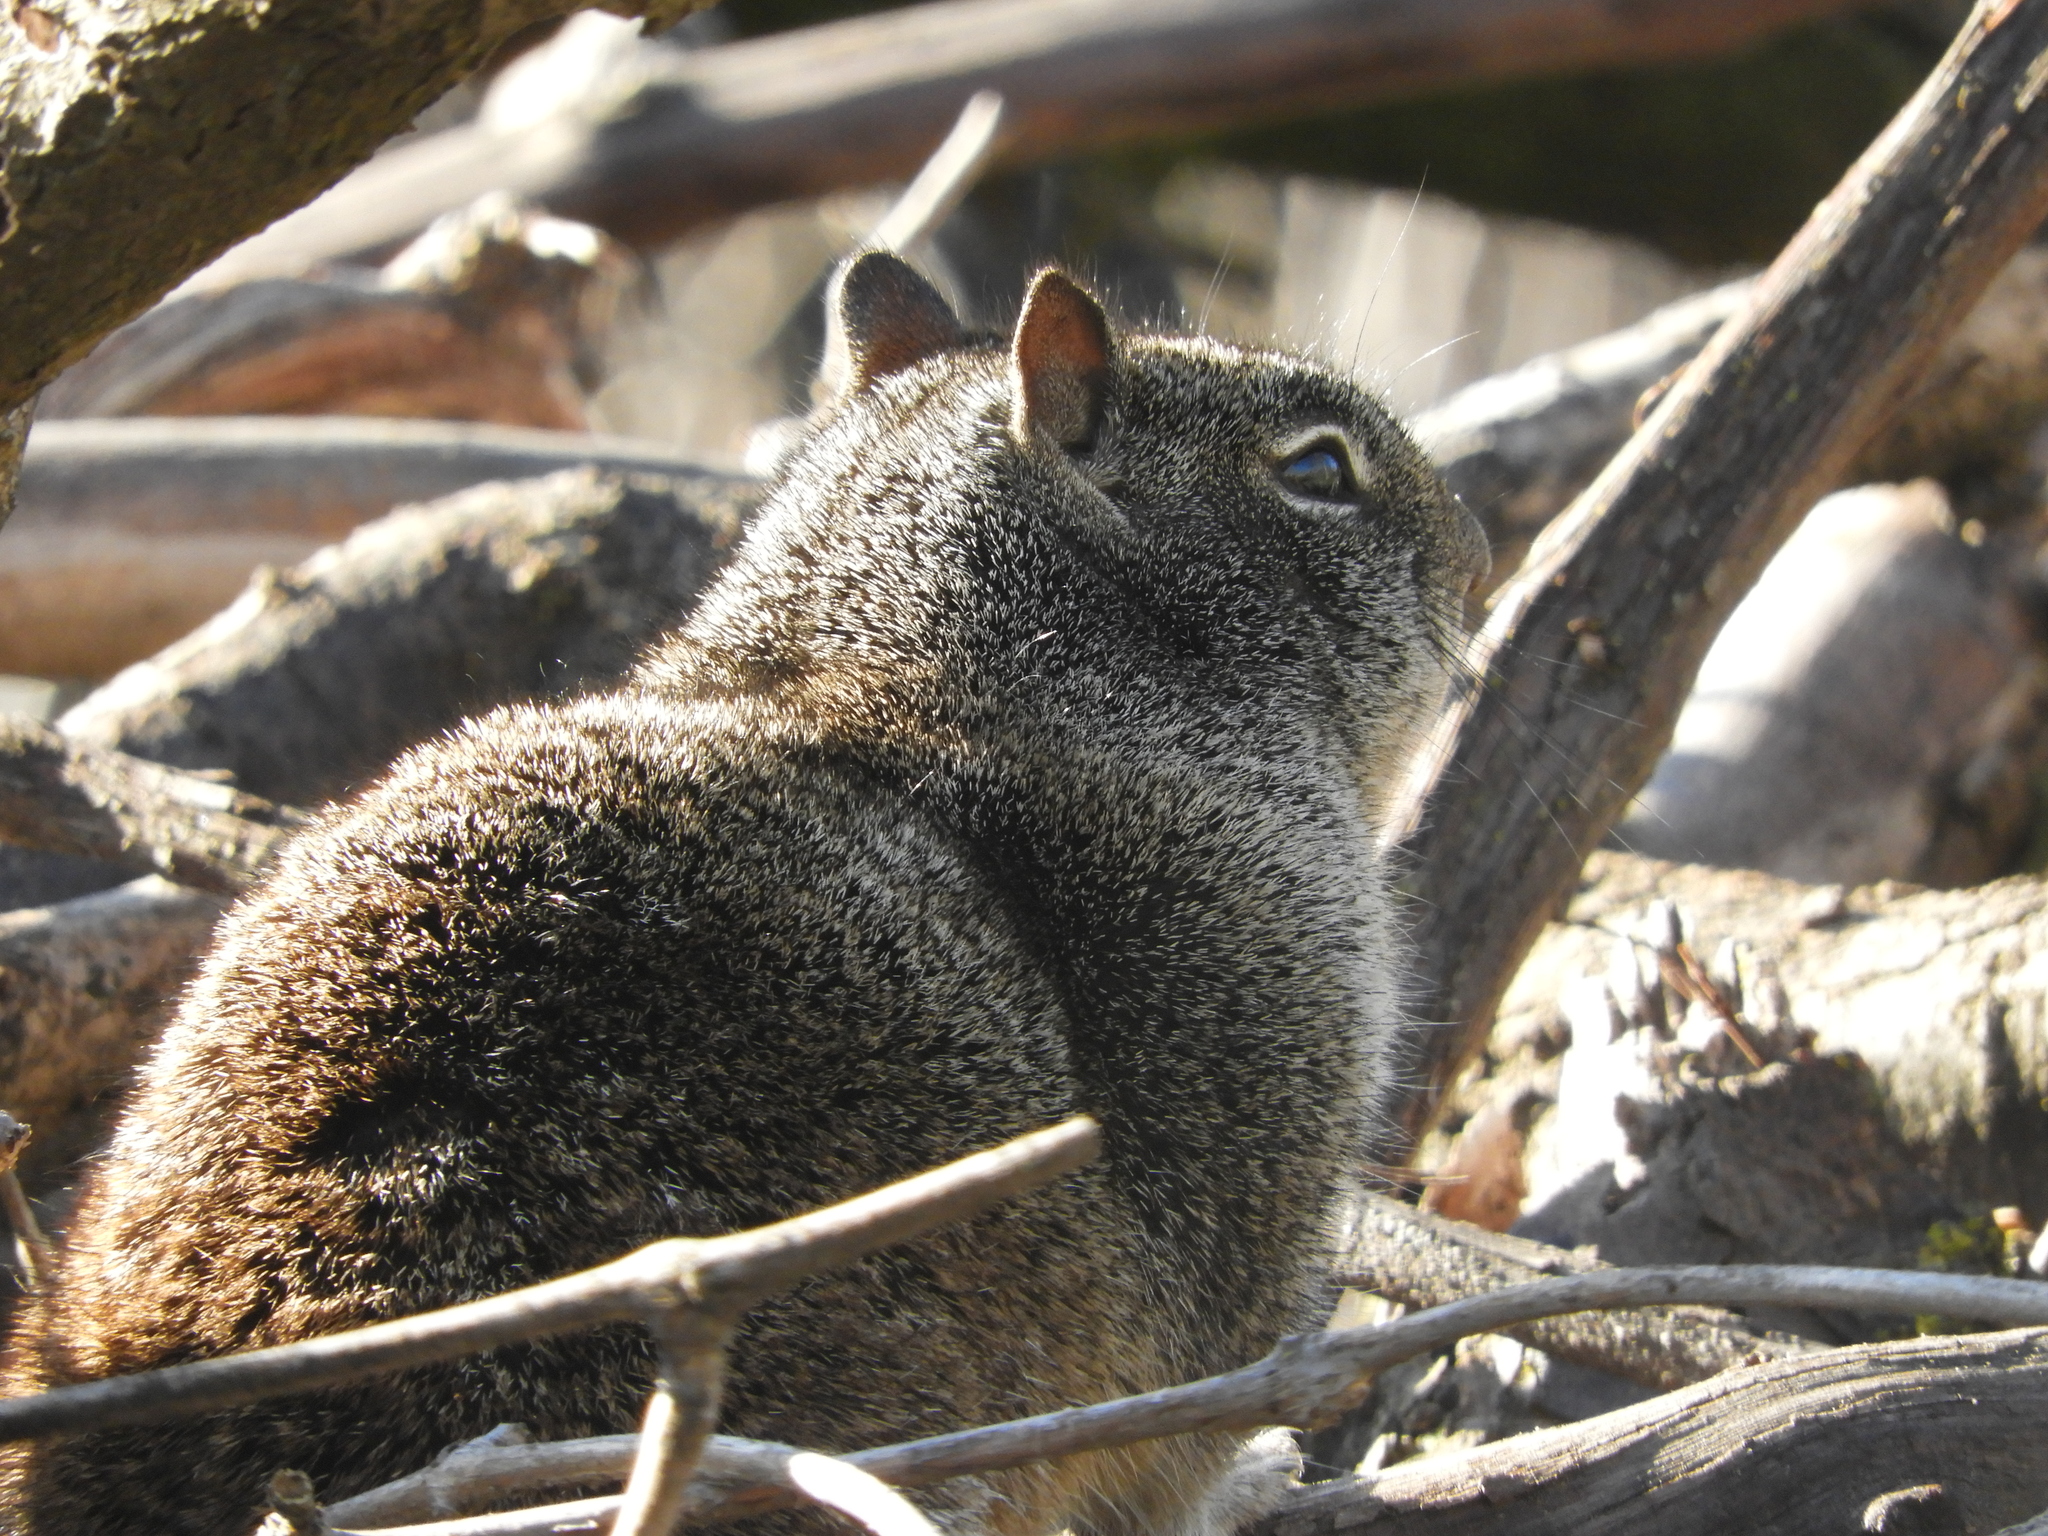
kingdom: Animalia
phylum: Chordata
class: Mammalia
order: Rodentia
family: Sciuridae
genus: Otospermophilus
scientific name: Otospermophilus beecheyi
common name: California ground squirrel
